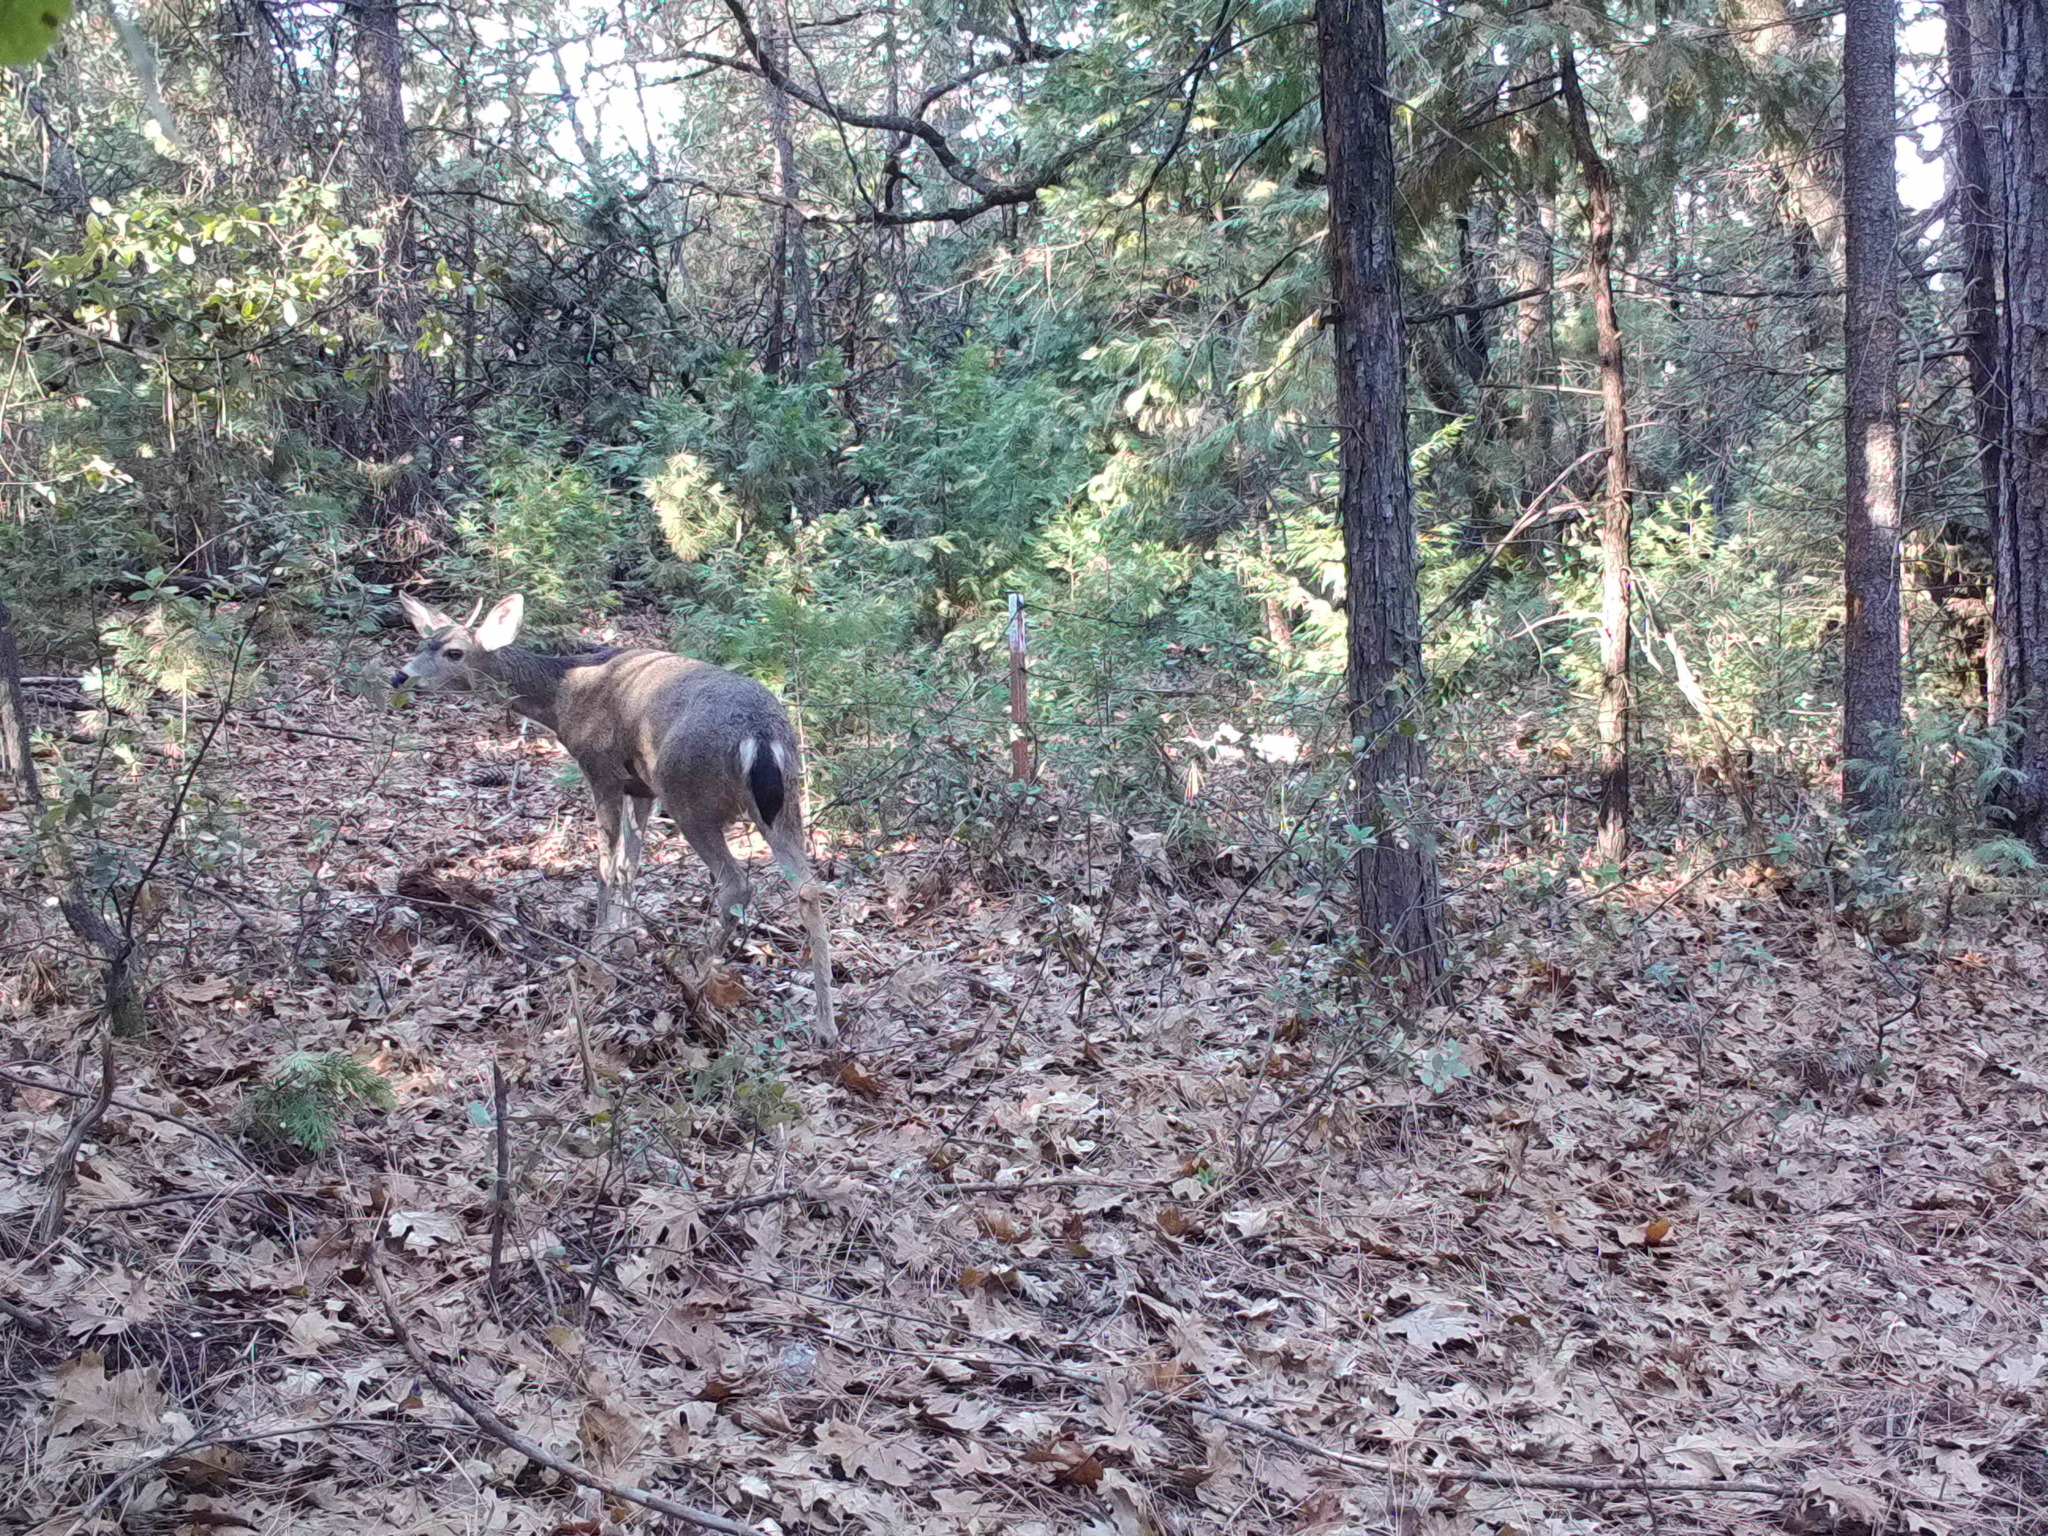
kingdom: Animalia
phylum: Chordata
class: Mammalia
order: Artiodactyla
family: Cervidae
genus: Odocoileus
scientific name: Odocoileus hemionus
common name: Mule deer
